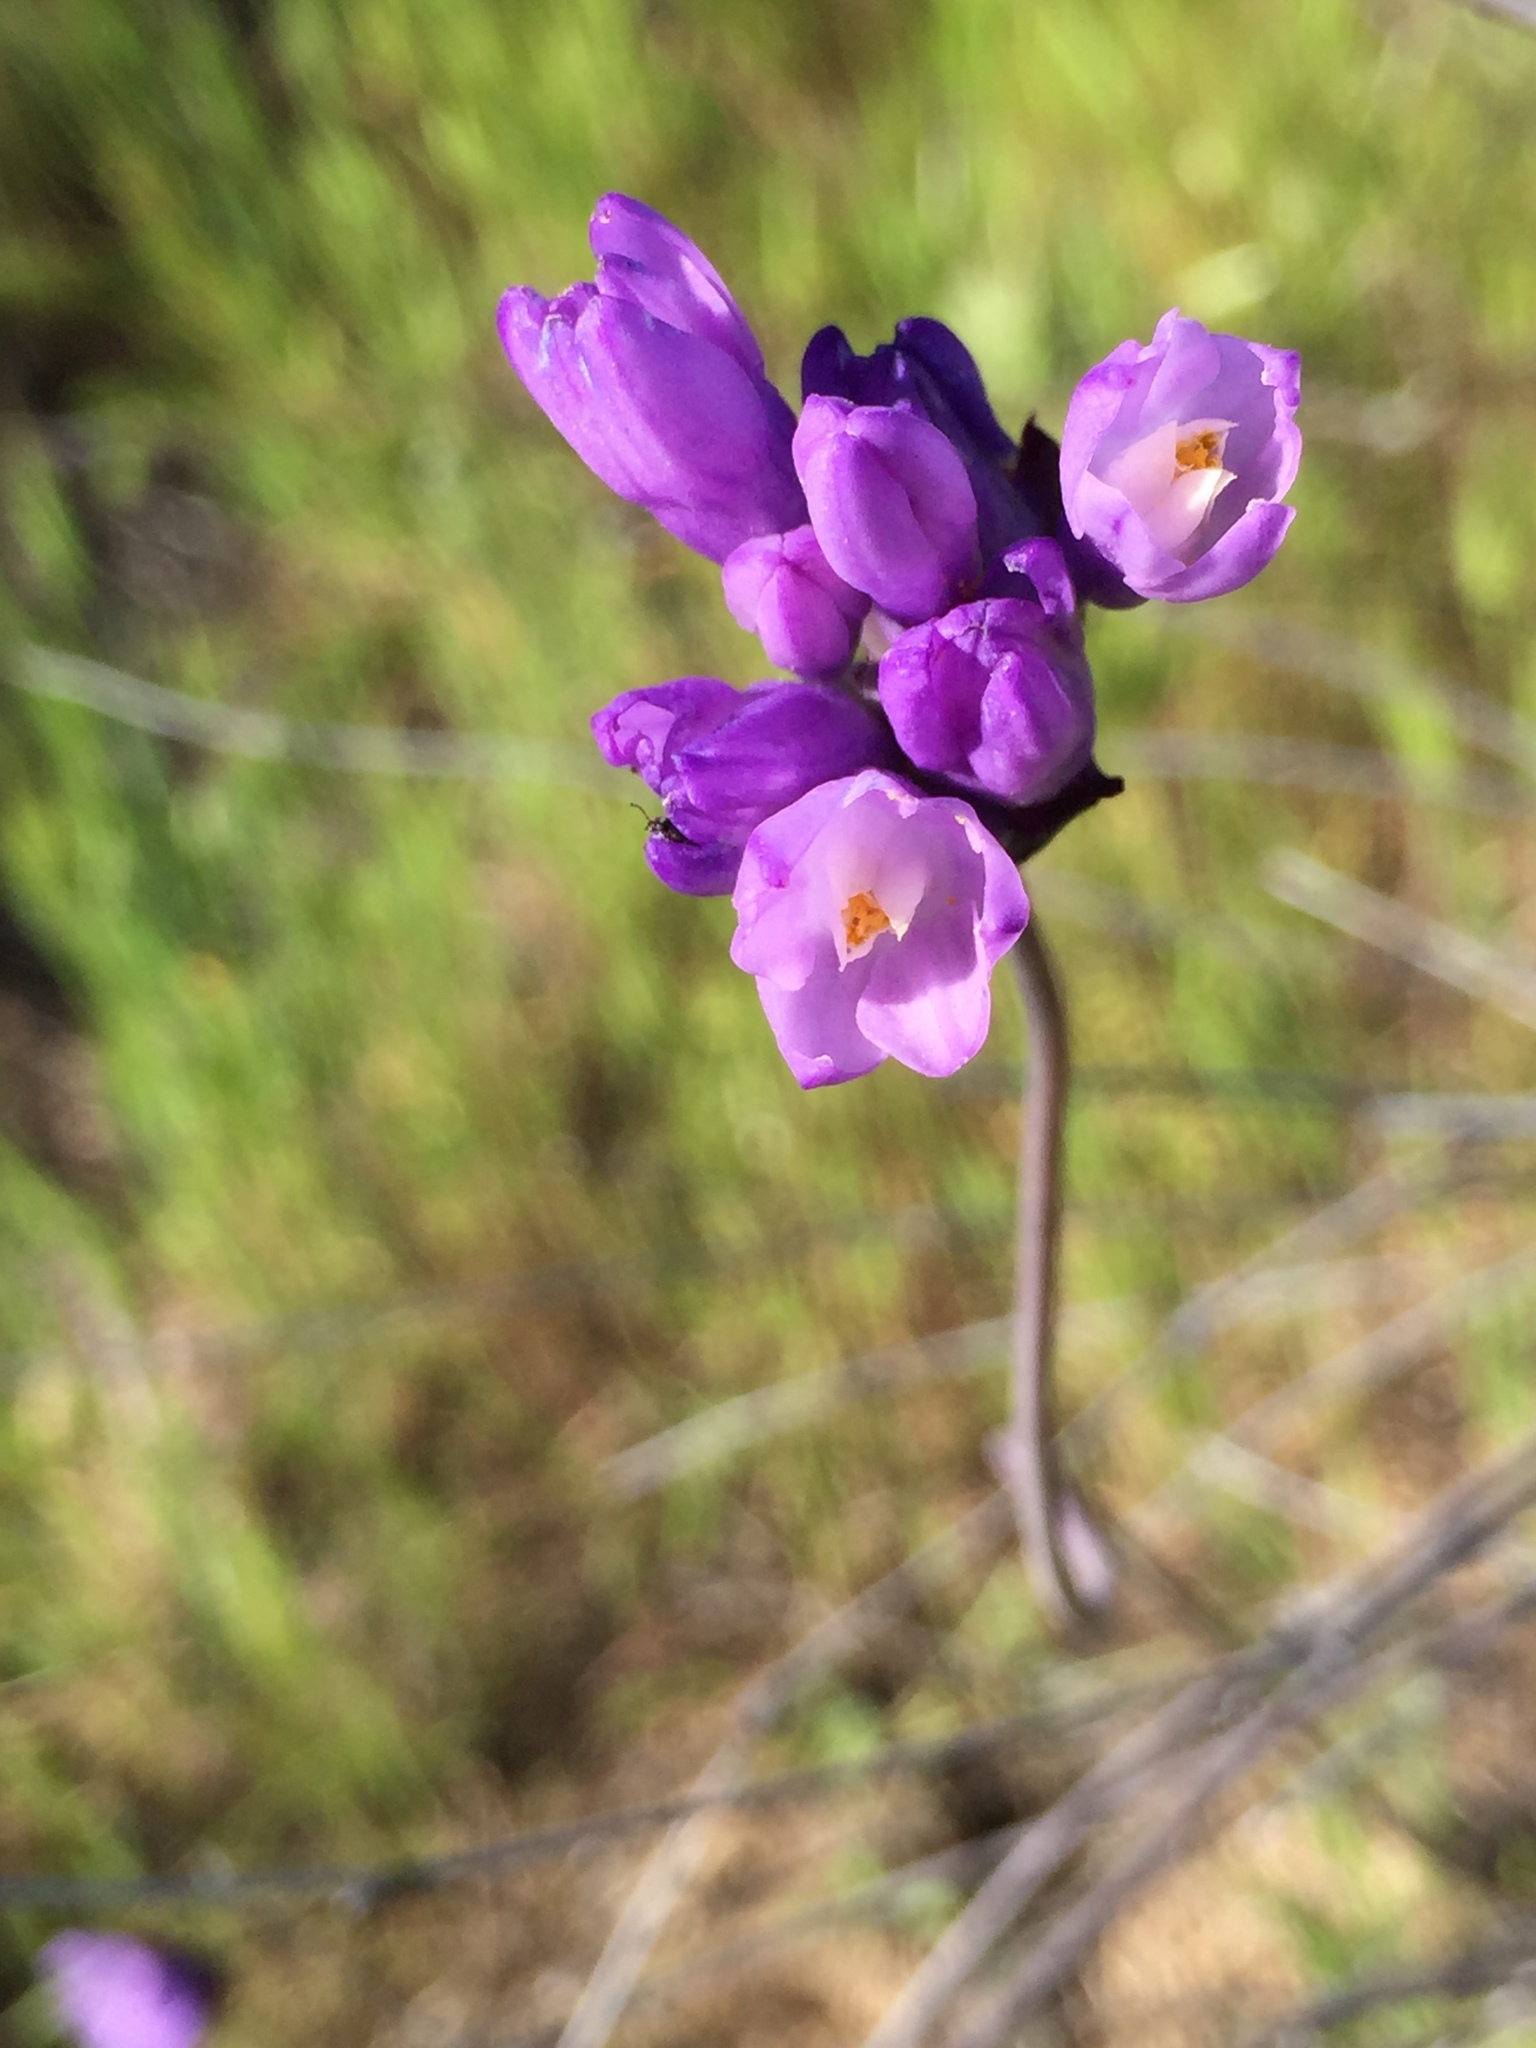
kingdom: Plantae
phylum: Tracheophyta
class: Liliopsida
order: Asparagales
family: Asparagaceae
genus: Dipterostemon
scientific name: Dipterostemon capitatus
